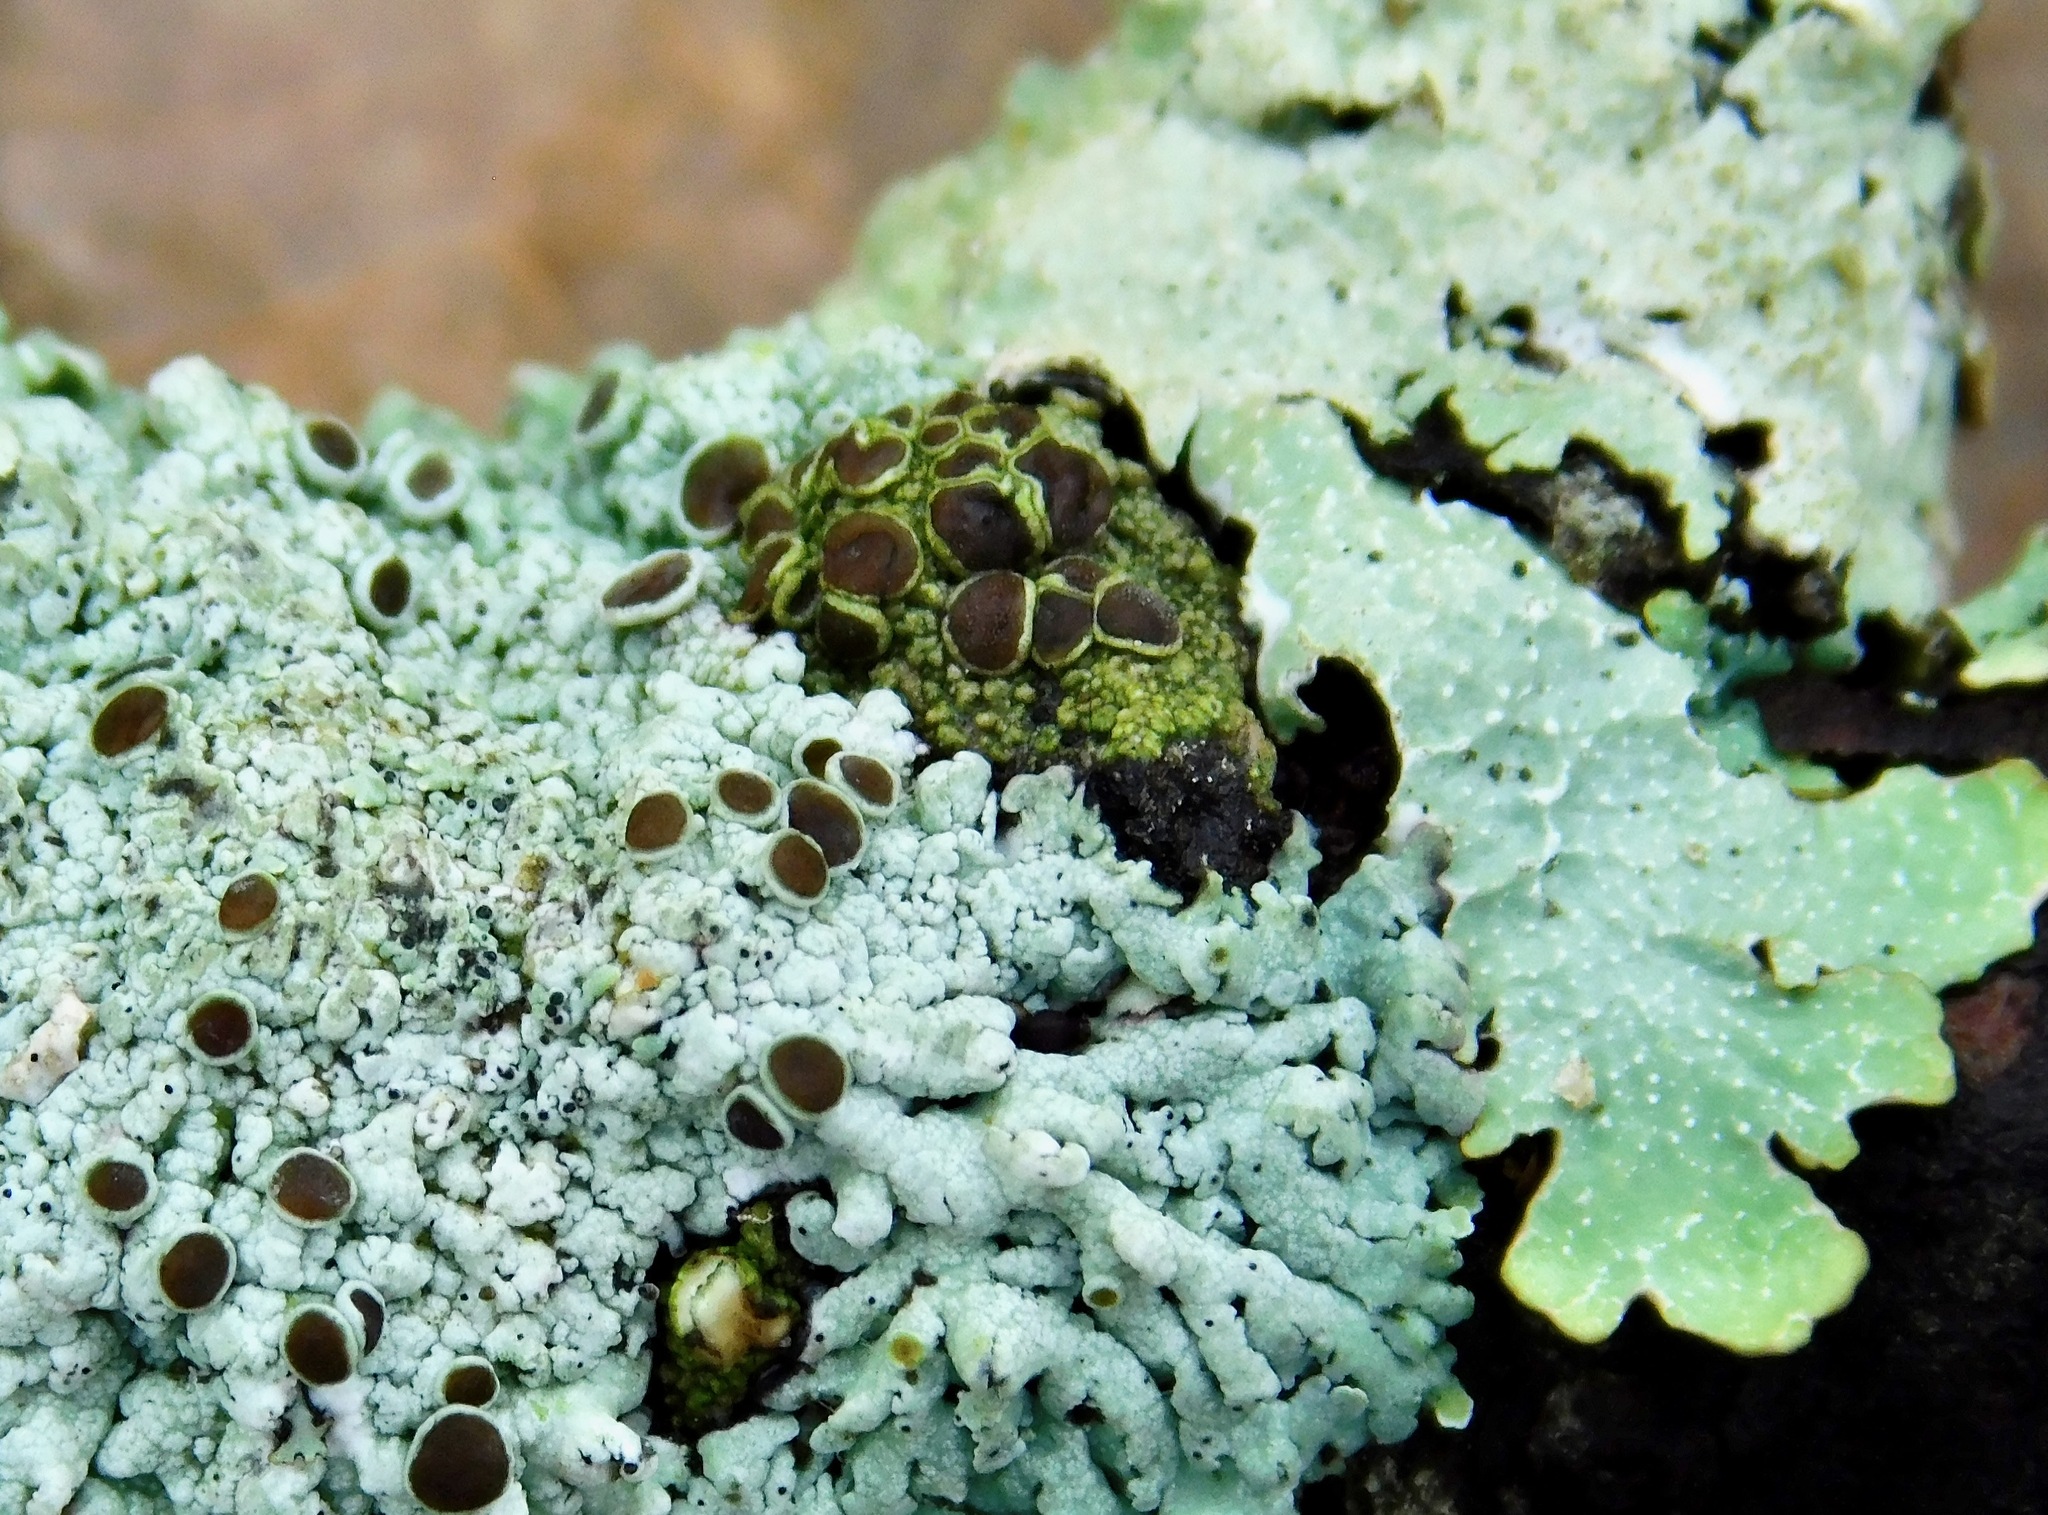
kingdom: Fungi
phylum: Ascomycota
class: Lecanoromycetes
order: Umbilicariales
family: Fuscideaceae
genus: Maronea
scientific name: Maronea polyphaea
